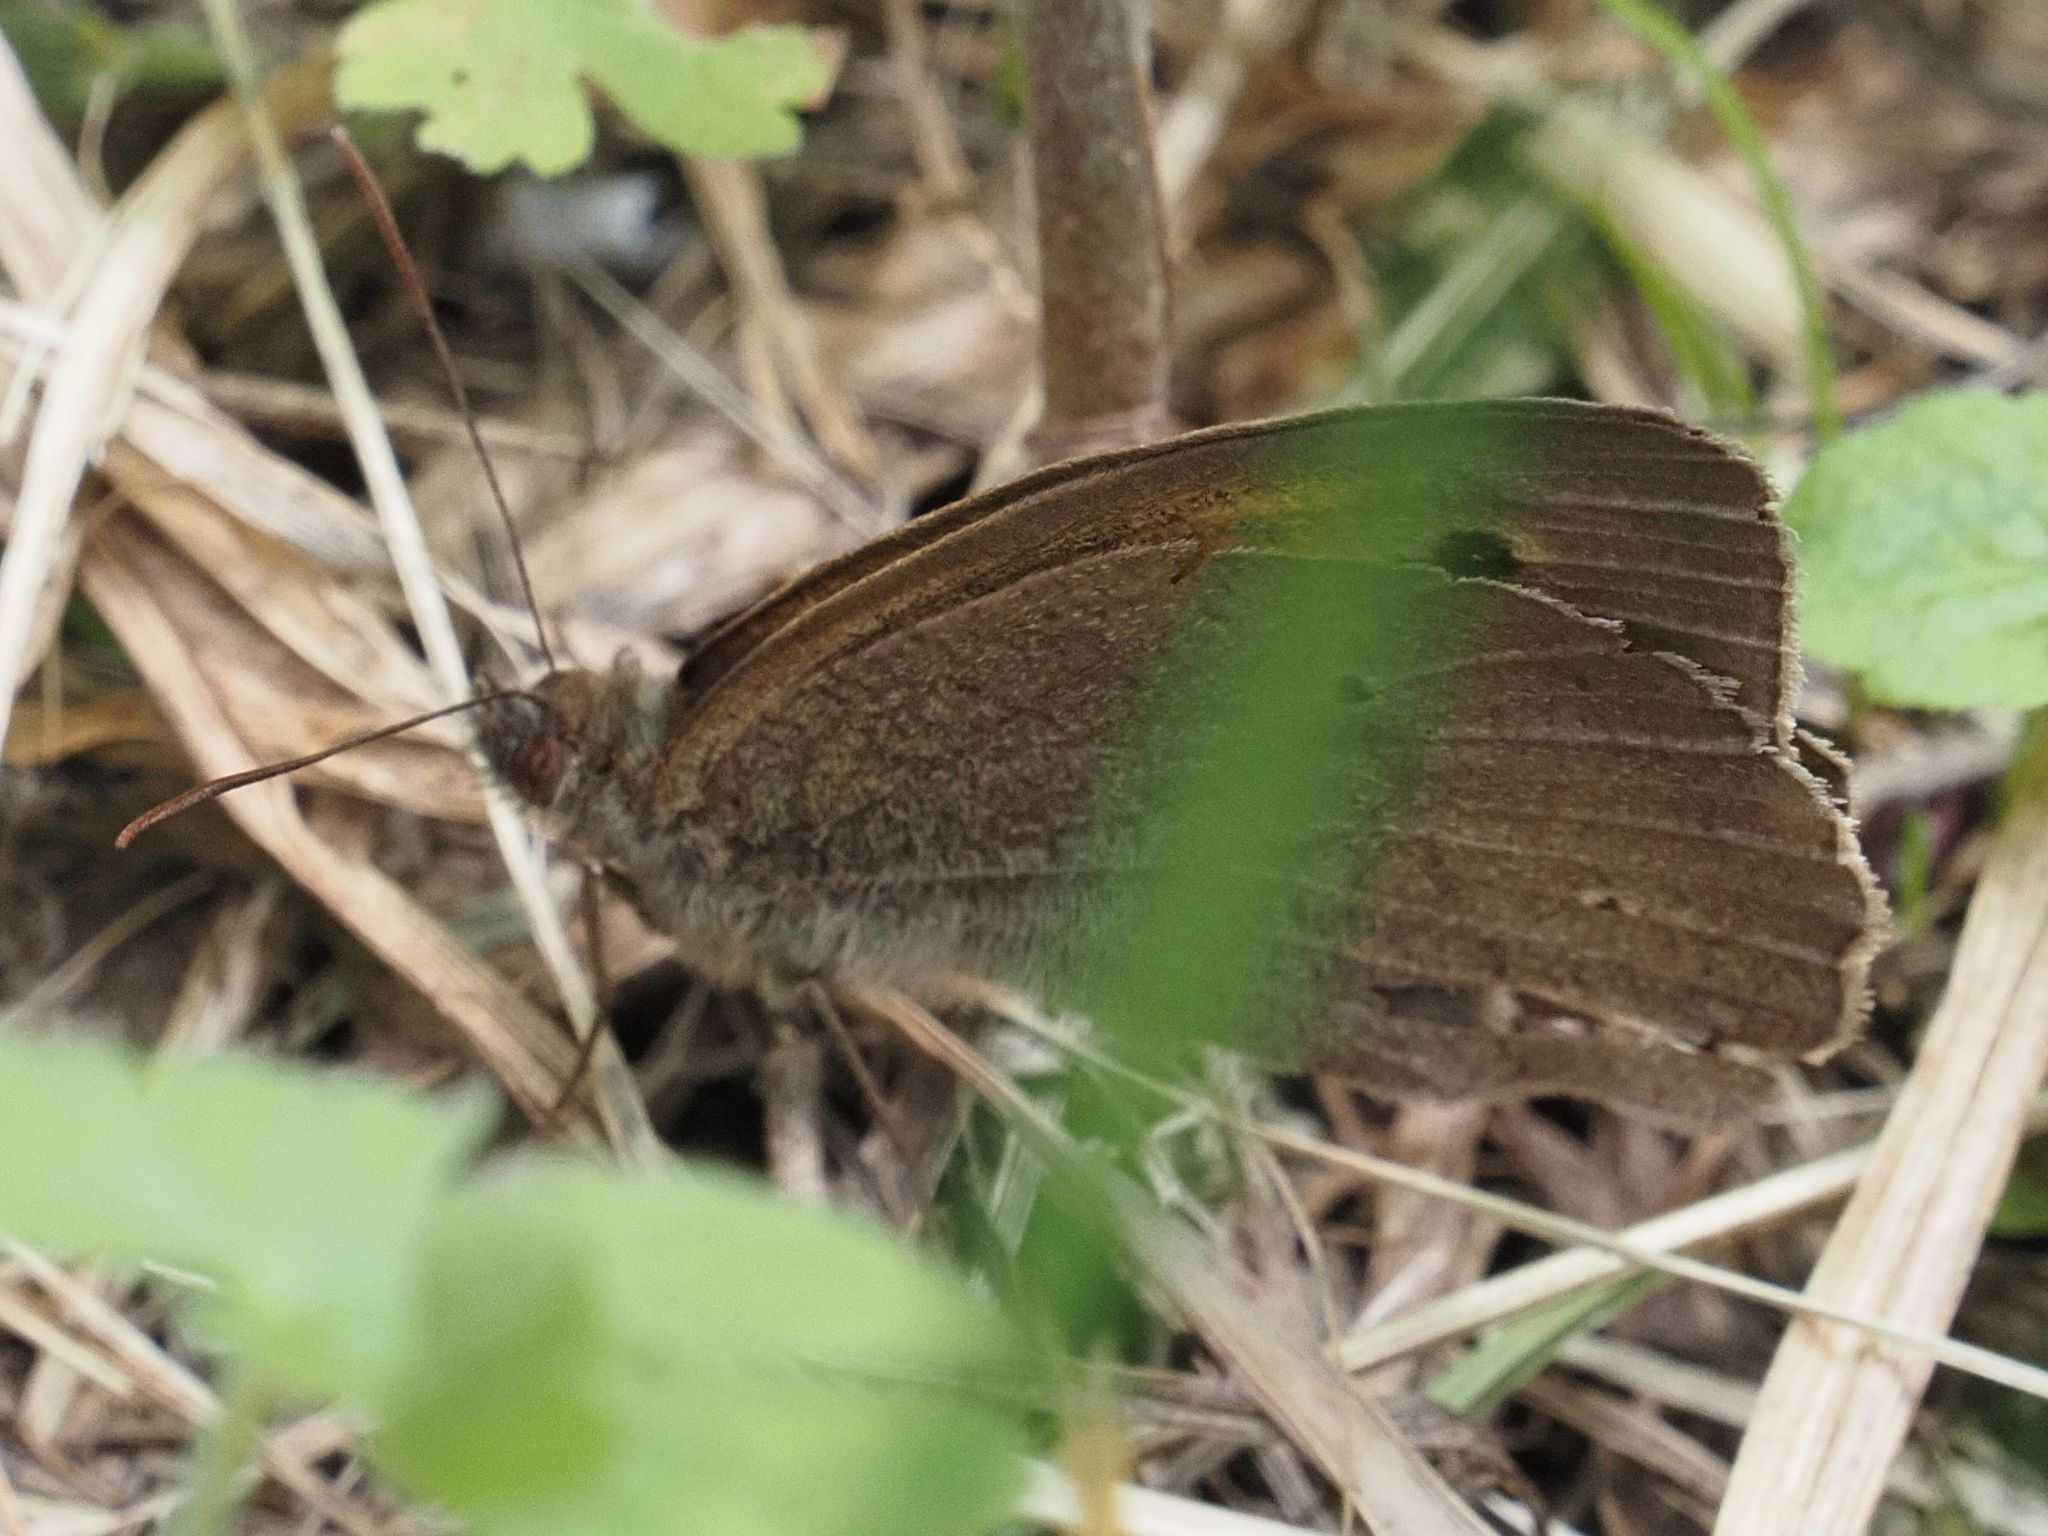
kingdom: Animalia
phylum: Arthropoda
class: Insecta
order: Lepidoptera
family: Nymphalidae
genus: Maniola
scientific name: Maniola jurtina
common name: Meadow brown
